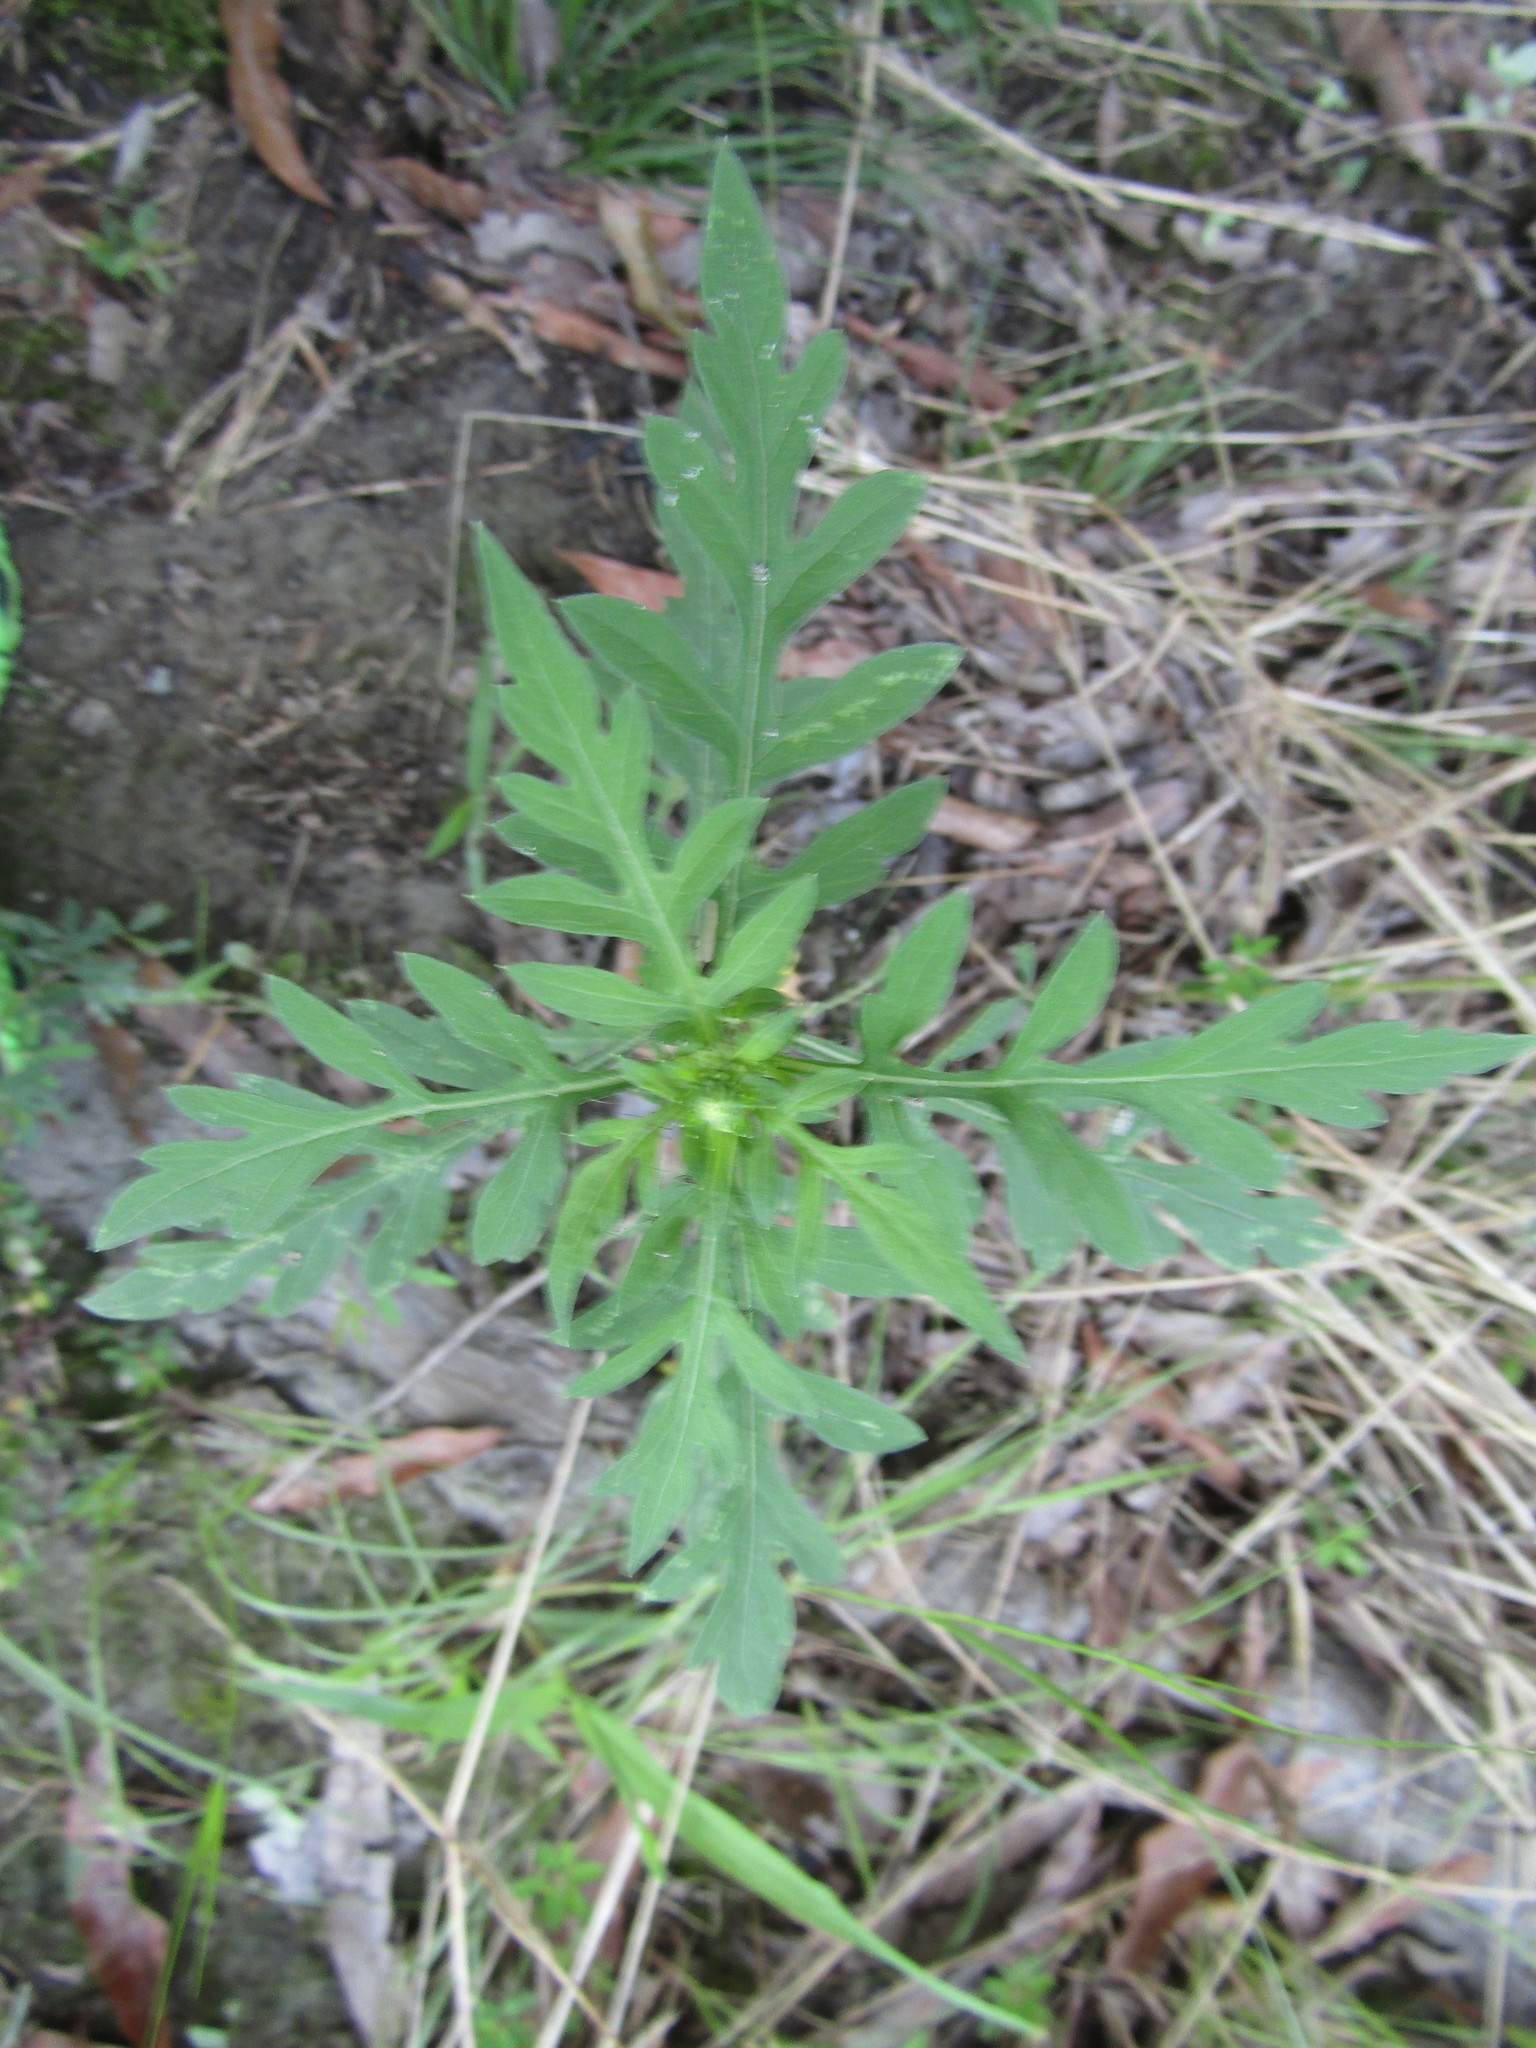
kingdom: Plantae
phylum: Tracheophyta
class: Magnoliopsida
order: Asterales
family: Asteraceae
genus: Ambrosia
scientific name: Ambrosia artemisiifolia
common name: Annual ragweed
